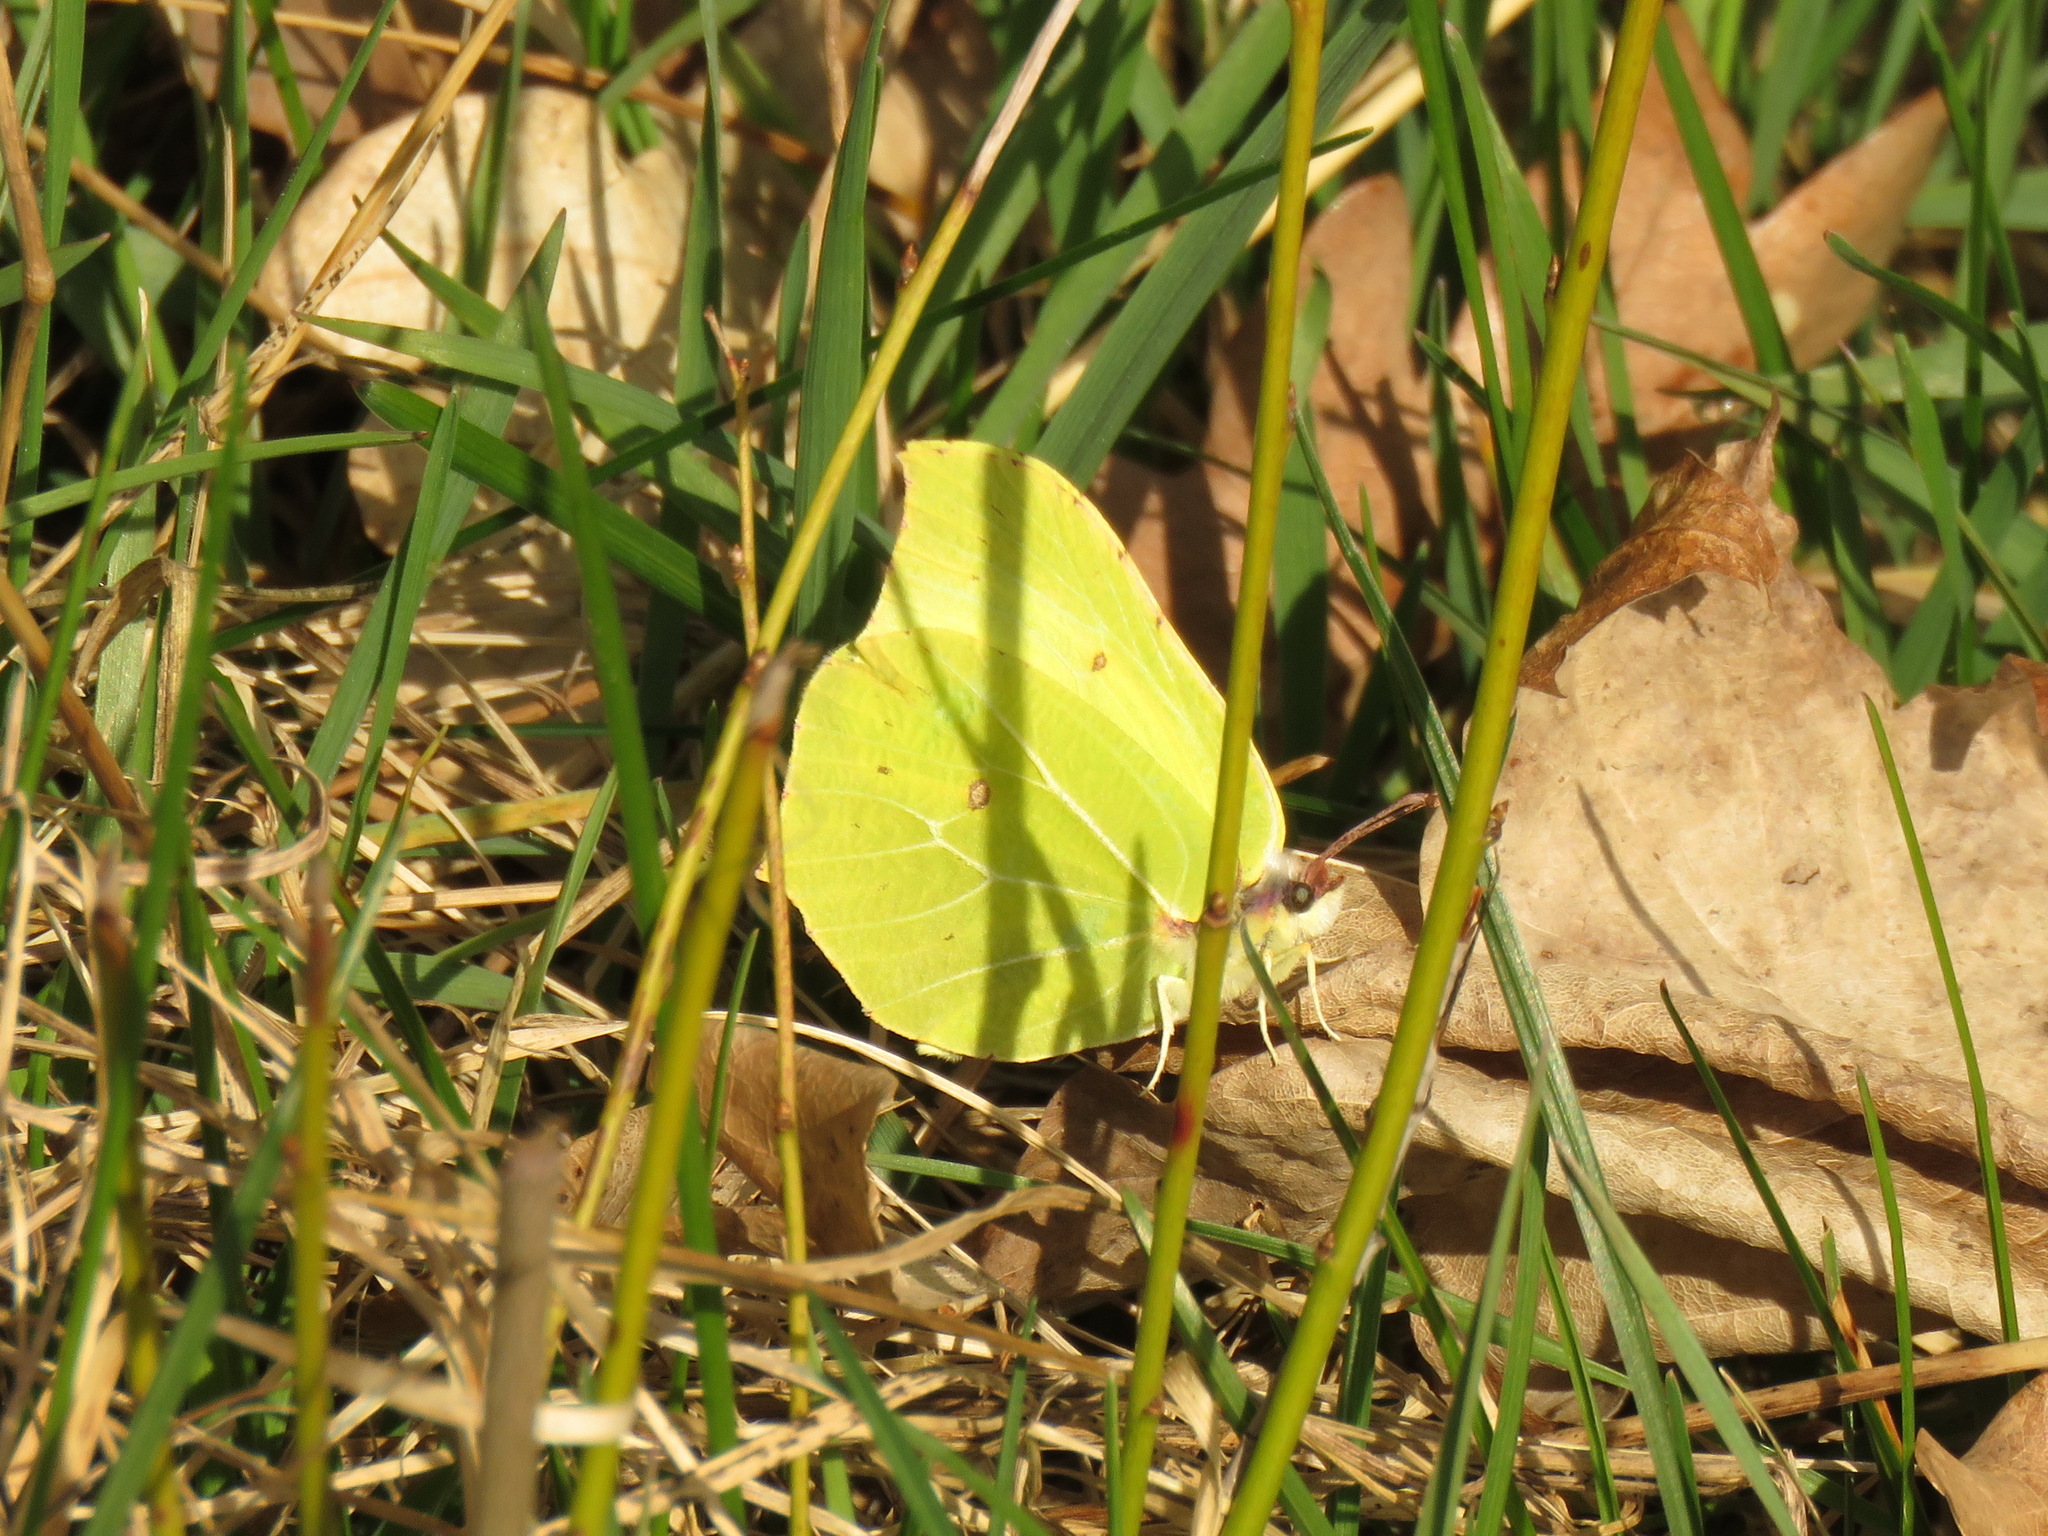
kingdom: Animalia
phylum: Arthropoda
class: Insecta
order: Lepidoptera
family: Pieridae
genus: Gonepteryx
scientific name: Gonepteryx rhamni
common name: Brimstone
